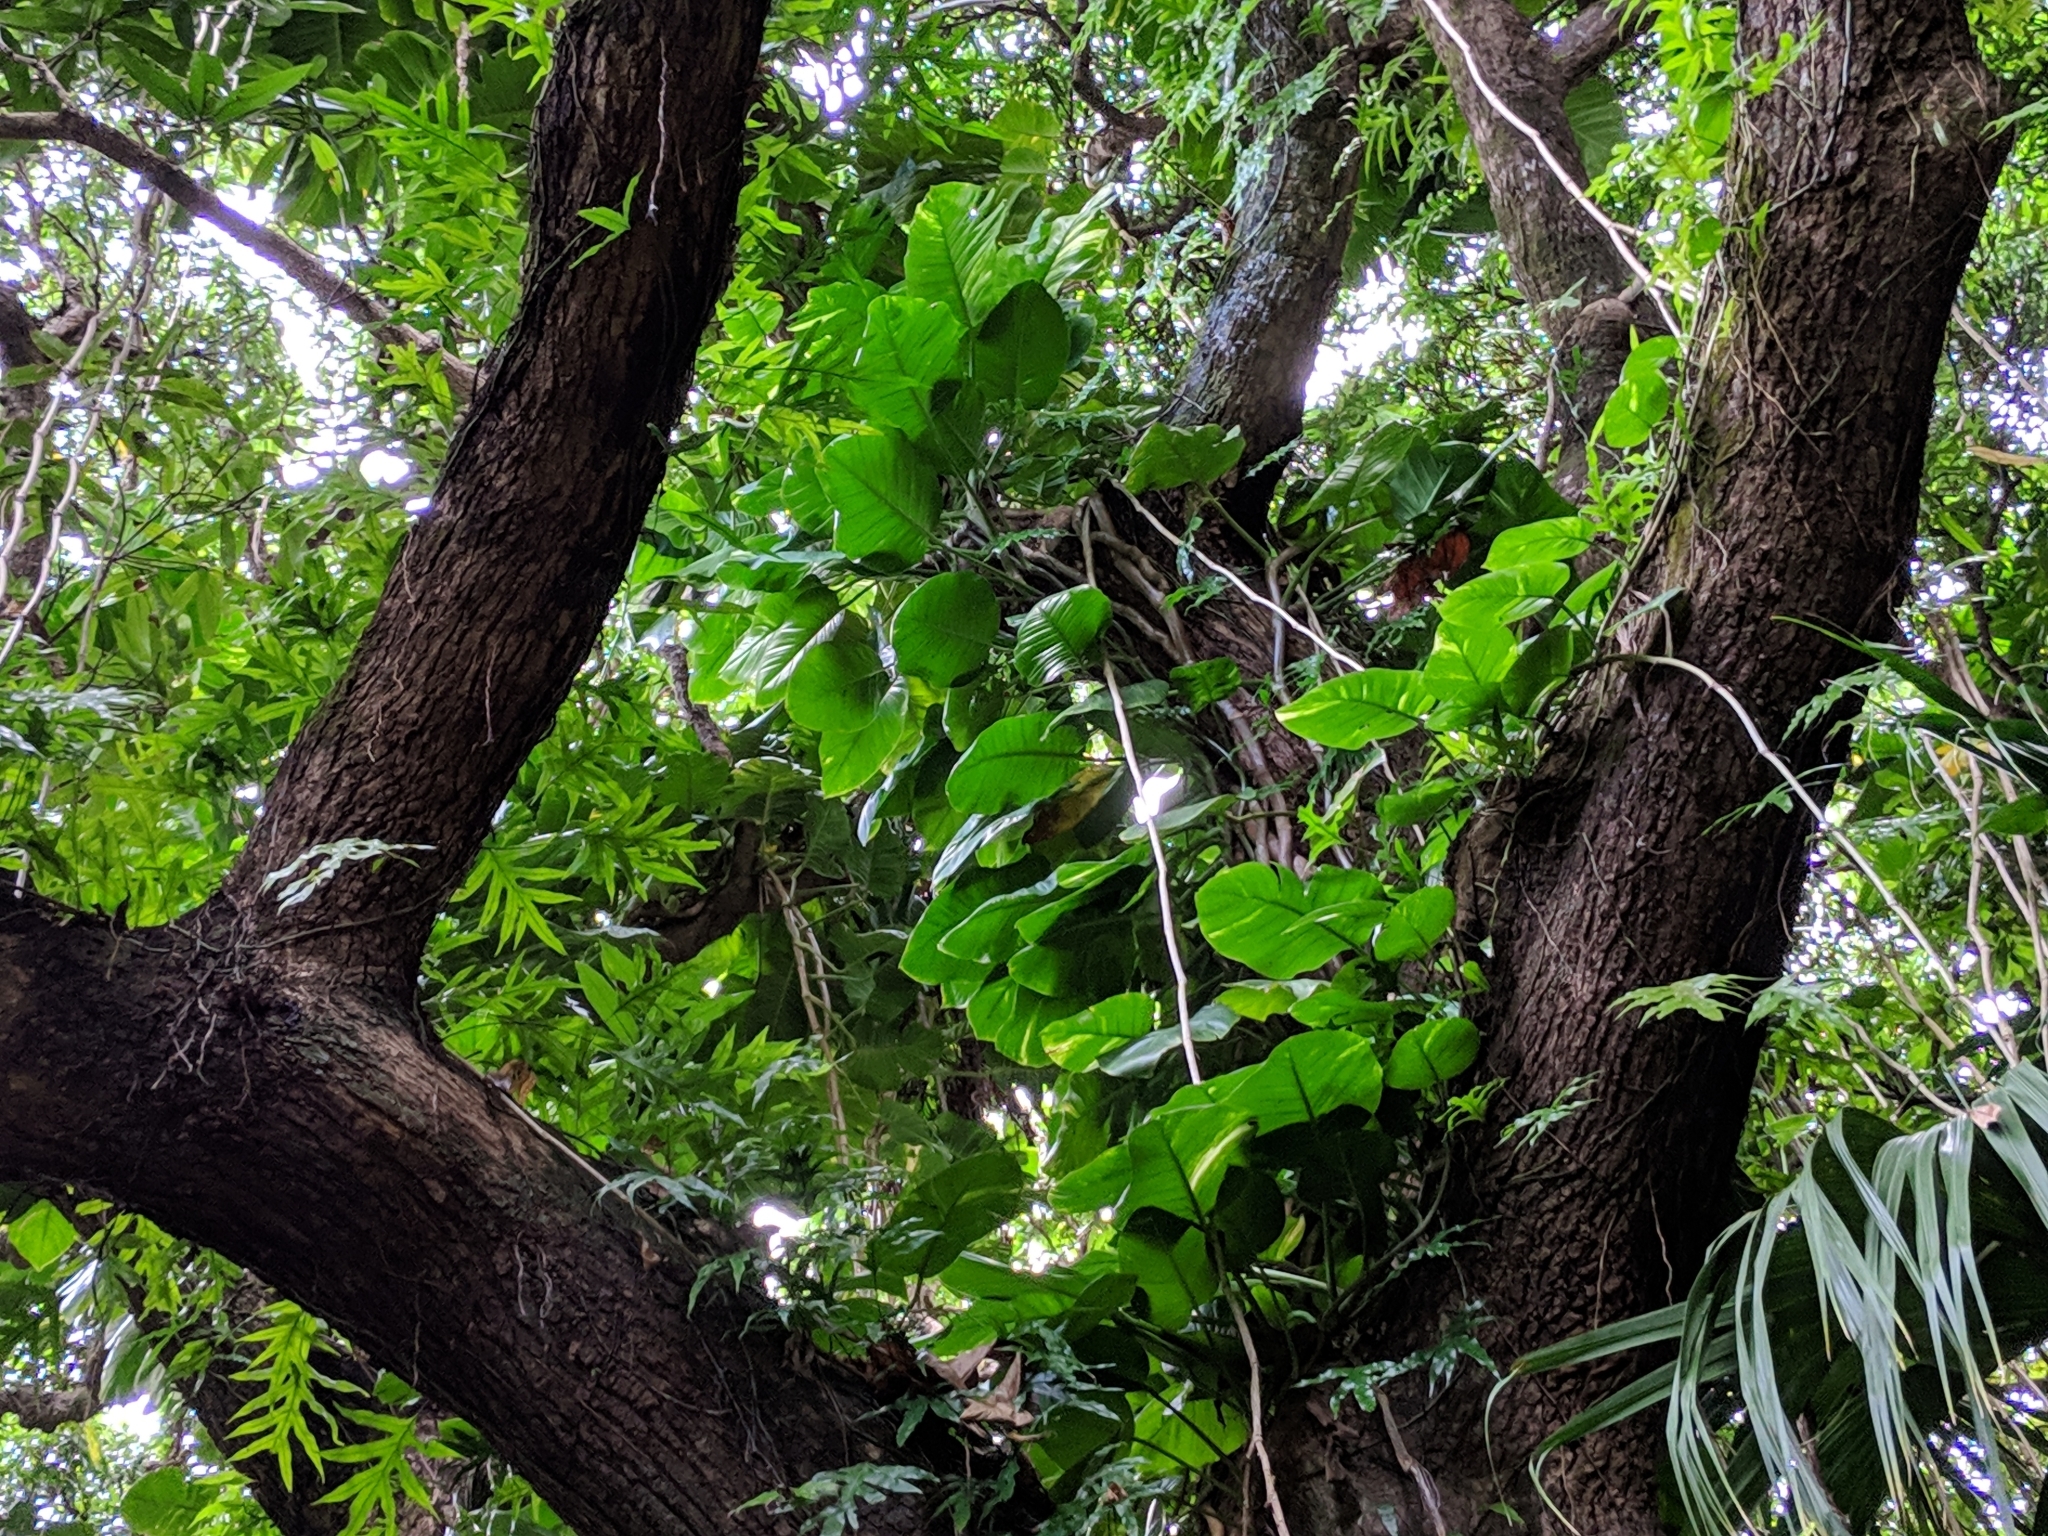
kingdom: Plantae
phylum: Tracheophyta
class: Liliopsida
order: Alismatales
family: Araceae
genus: Epipremnum
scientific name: Epipremnum aureum
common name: Golden hunter's-robe
